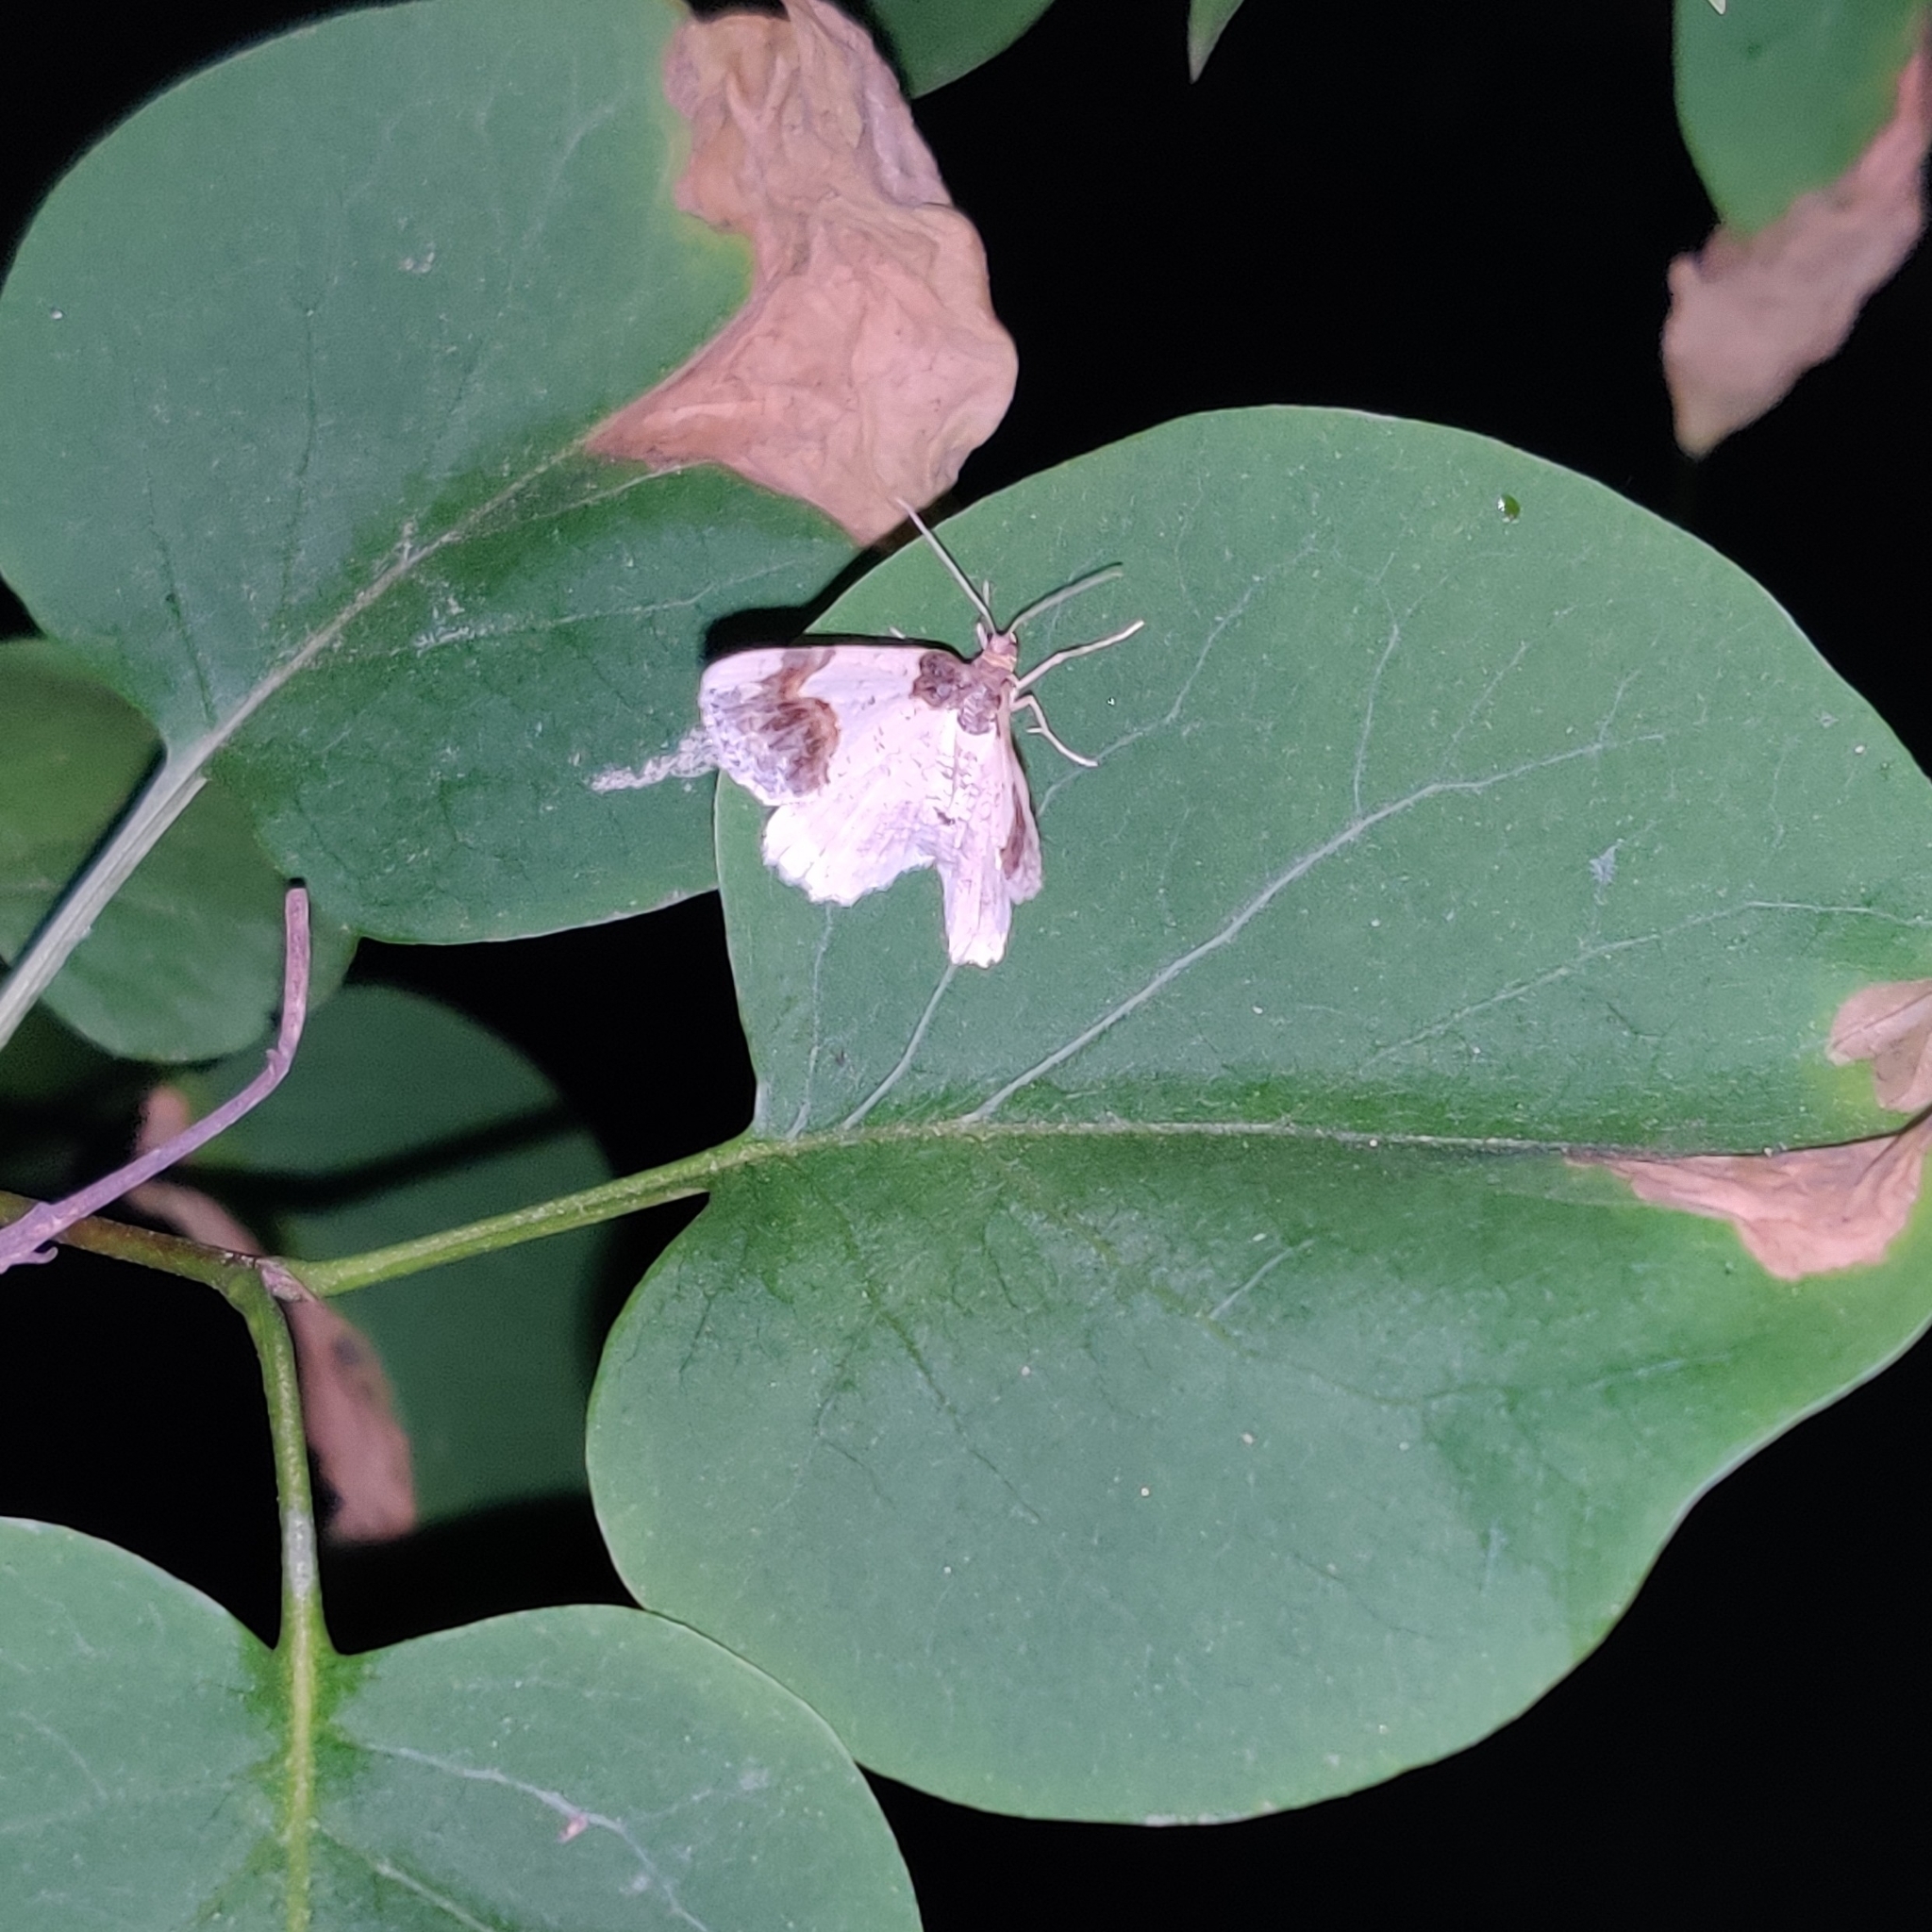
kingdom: Animalia
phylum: Arthropoda
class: Insecta
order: Lepidoptera
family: Geometridae
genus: Ligdia
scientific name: Ligdia adustata
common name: Scorched carpet
